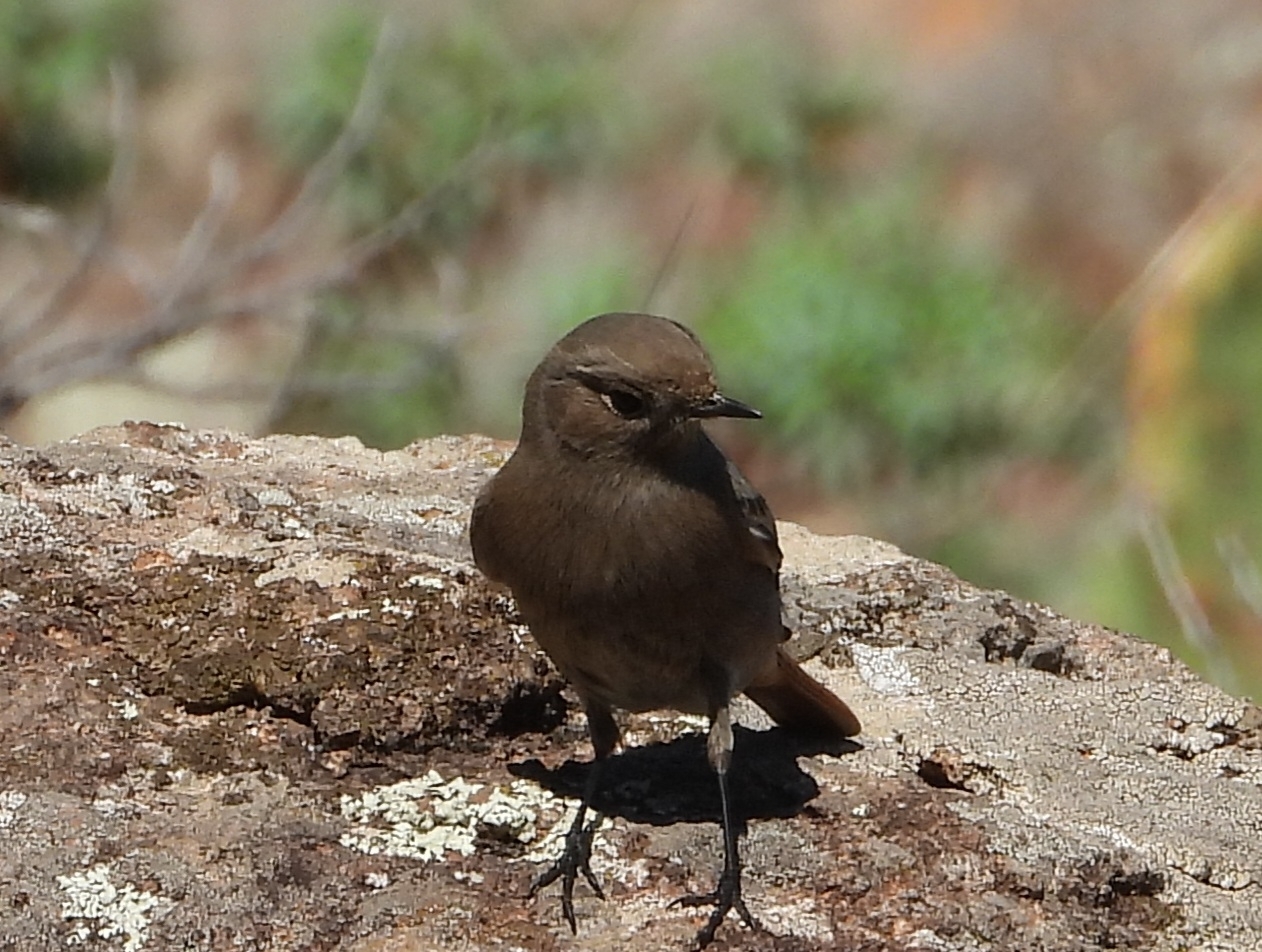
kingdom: Animalia
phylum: Chordata
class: Aves
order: Passeriformes
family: Muscicapidae
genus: Phoenicurus
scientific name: Phoenicurus ochruros
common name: Black redstart
